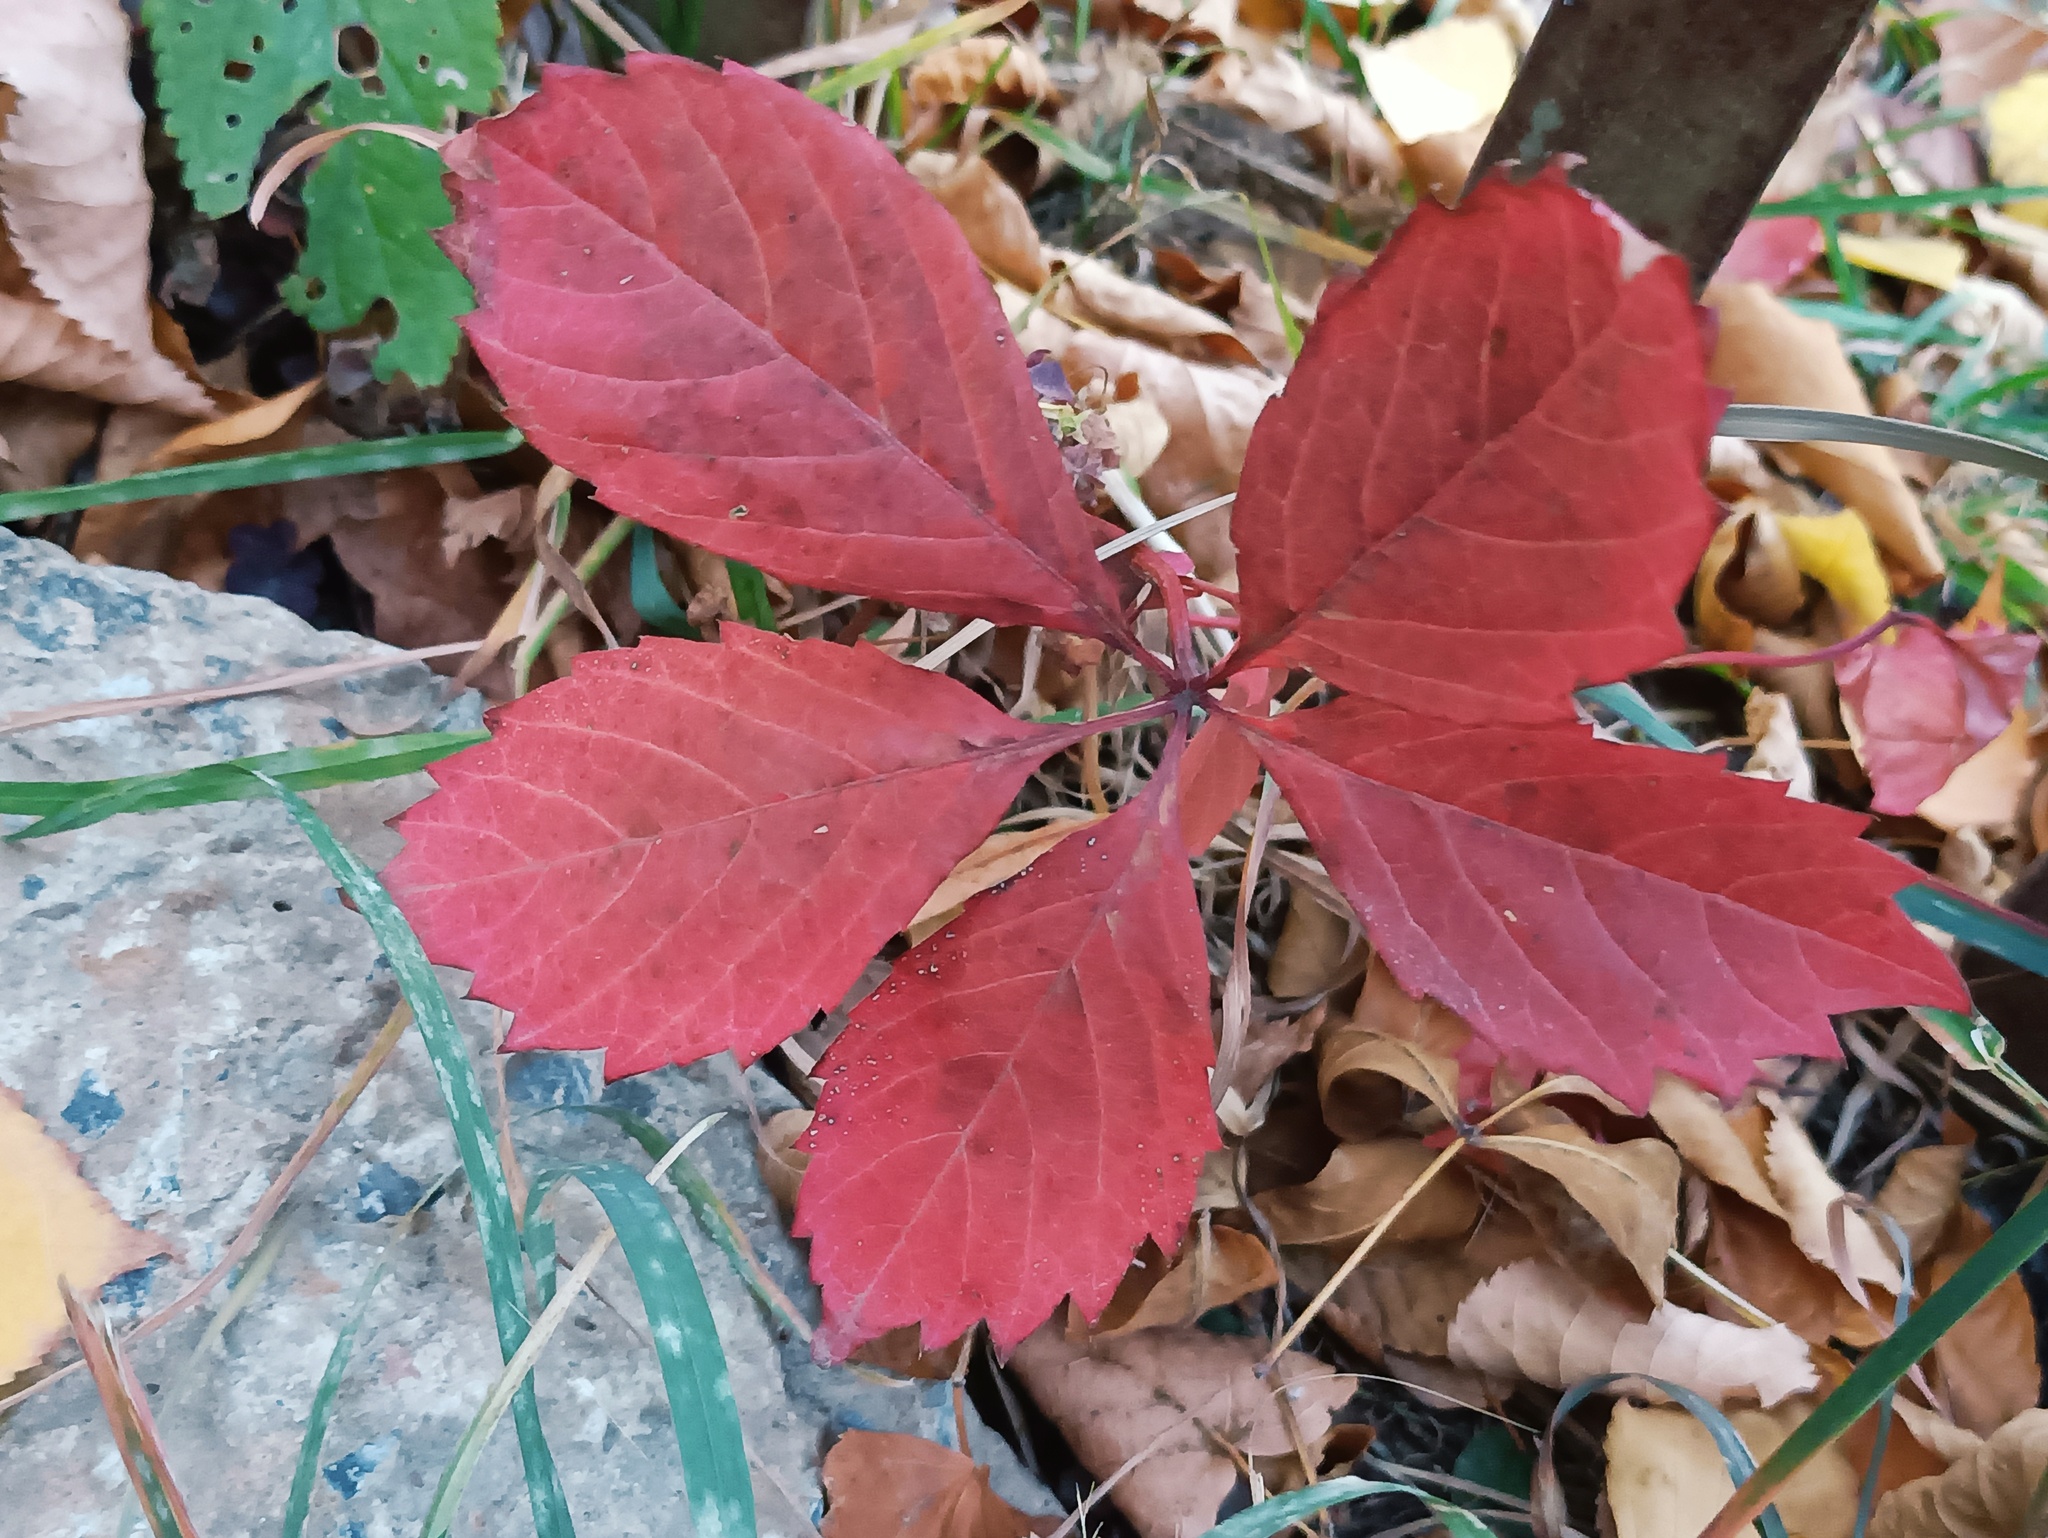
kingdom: Plantae
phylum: Tracheophyta
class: Magnoliopsida
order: Vitales
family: Vitaceae
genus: Parthenocissus
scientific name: Parthenocissus inserta
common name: False virginia-creeper
